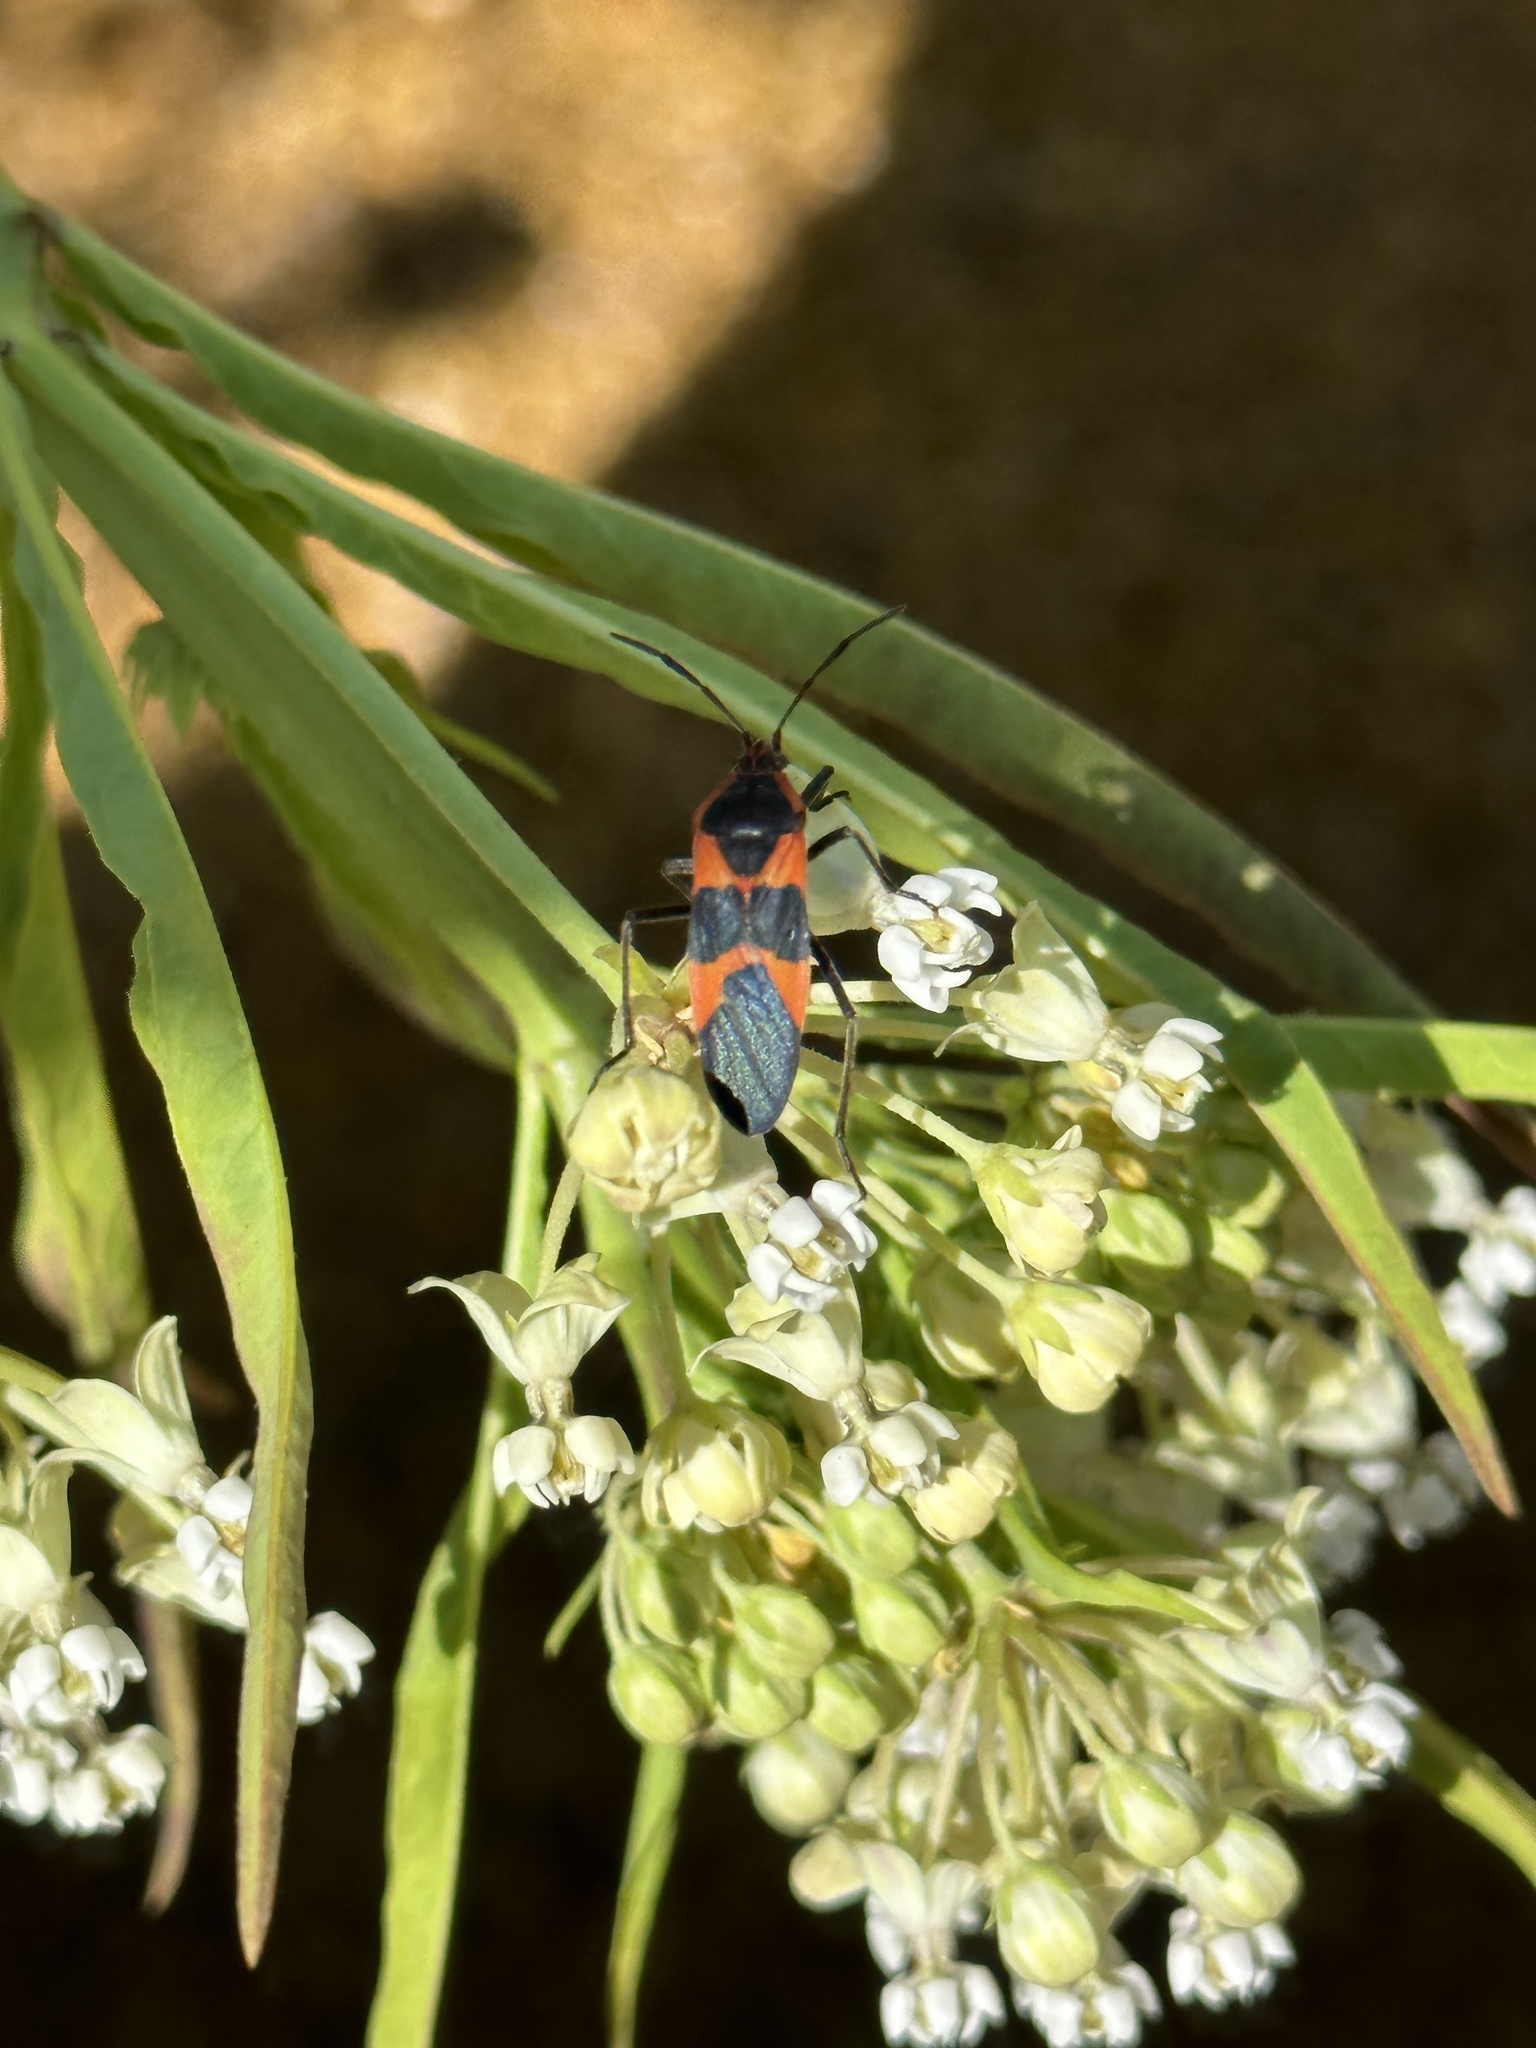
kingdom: Animalia
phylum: Arthropoda
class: Insecta
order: Hemiptera
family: Lygaeidae
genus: Oncopeltus
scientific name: Oncopeltus fasciatus
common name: Large milkweed bug
